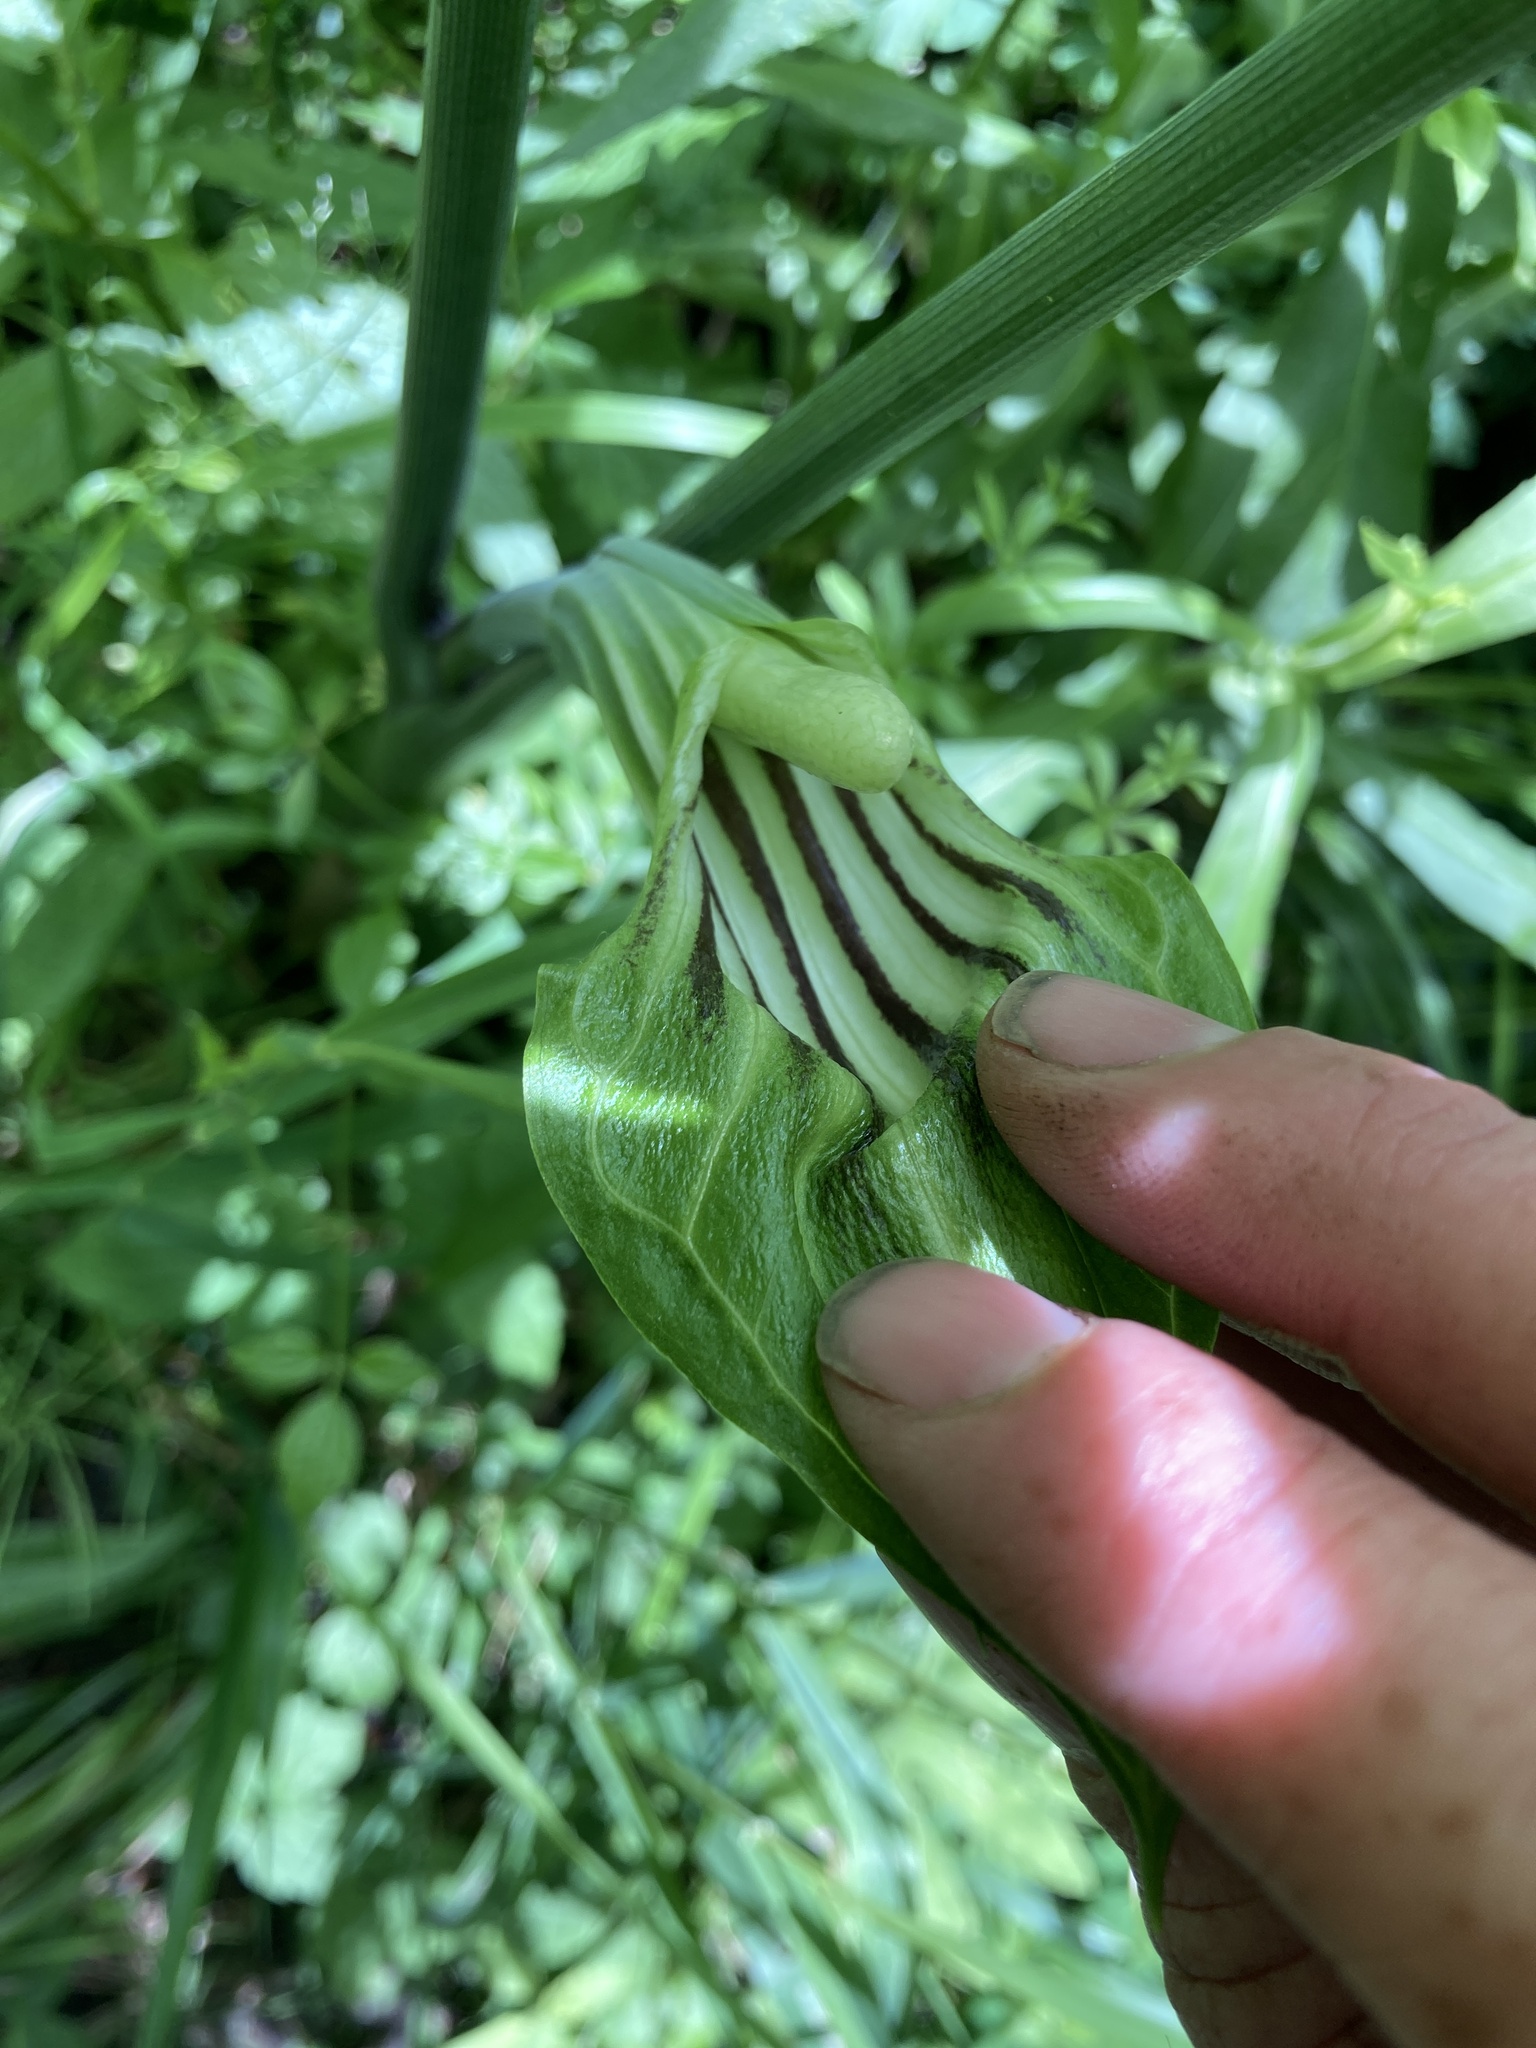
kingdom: Plantae
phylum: Tracheophyta
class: Liliopsida
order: Alismatales
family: Araceae
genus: Arisaema
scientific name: Arisaema stewardsonii
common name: Swamp jack-in-the-pulpit
